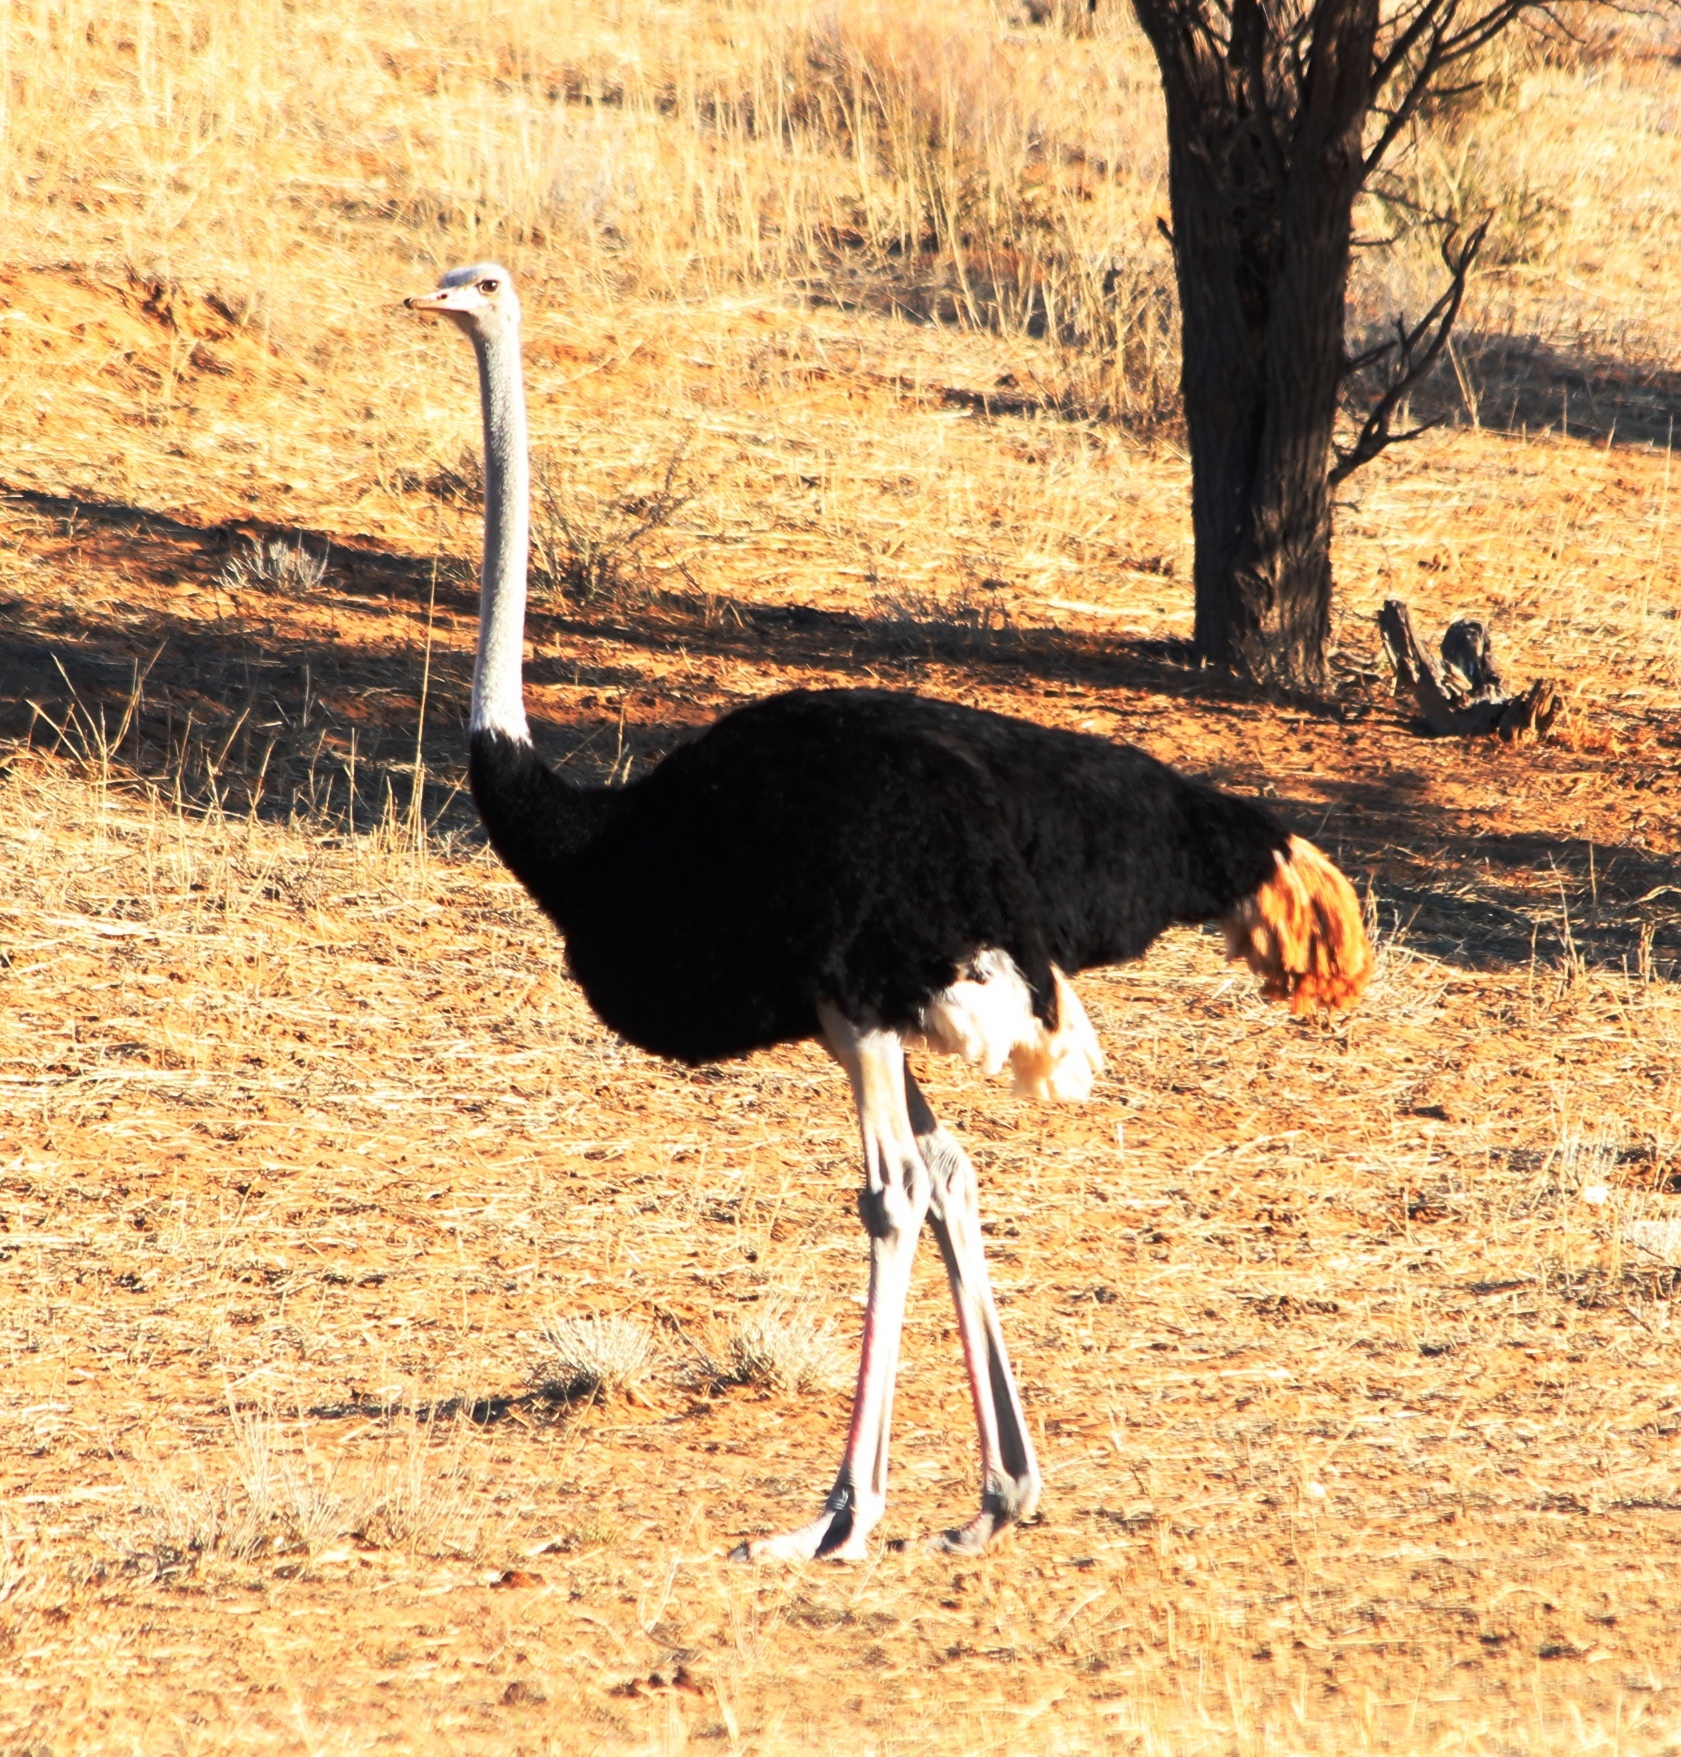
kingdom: Animalia
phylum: Chordata
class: Aves
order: Struthioniformes
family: Struthionidae
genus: Struthio
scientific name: Struthio camelus
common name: Common ostrich
